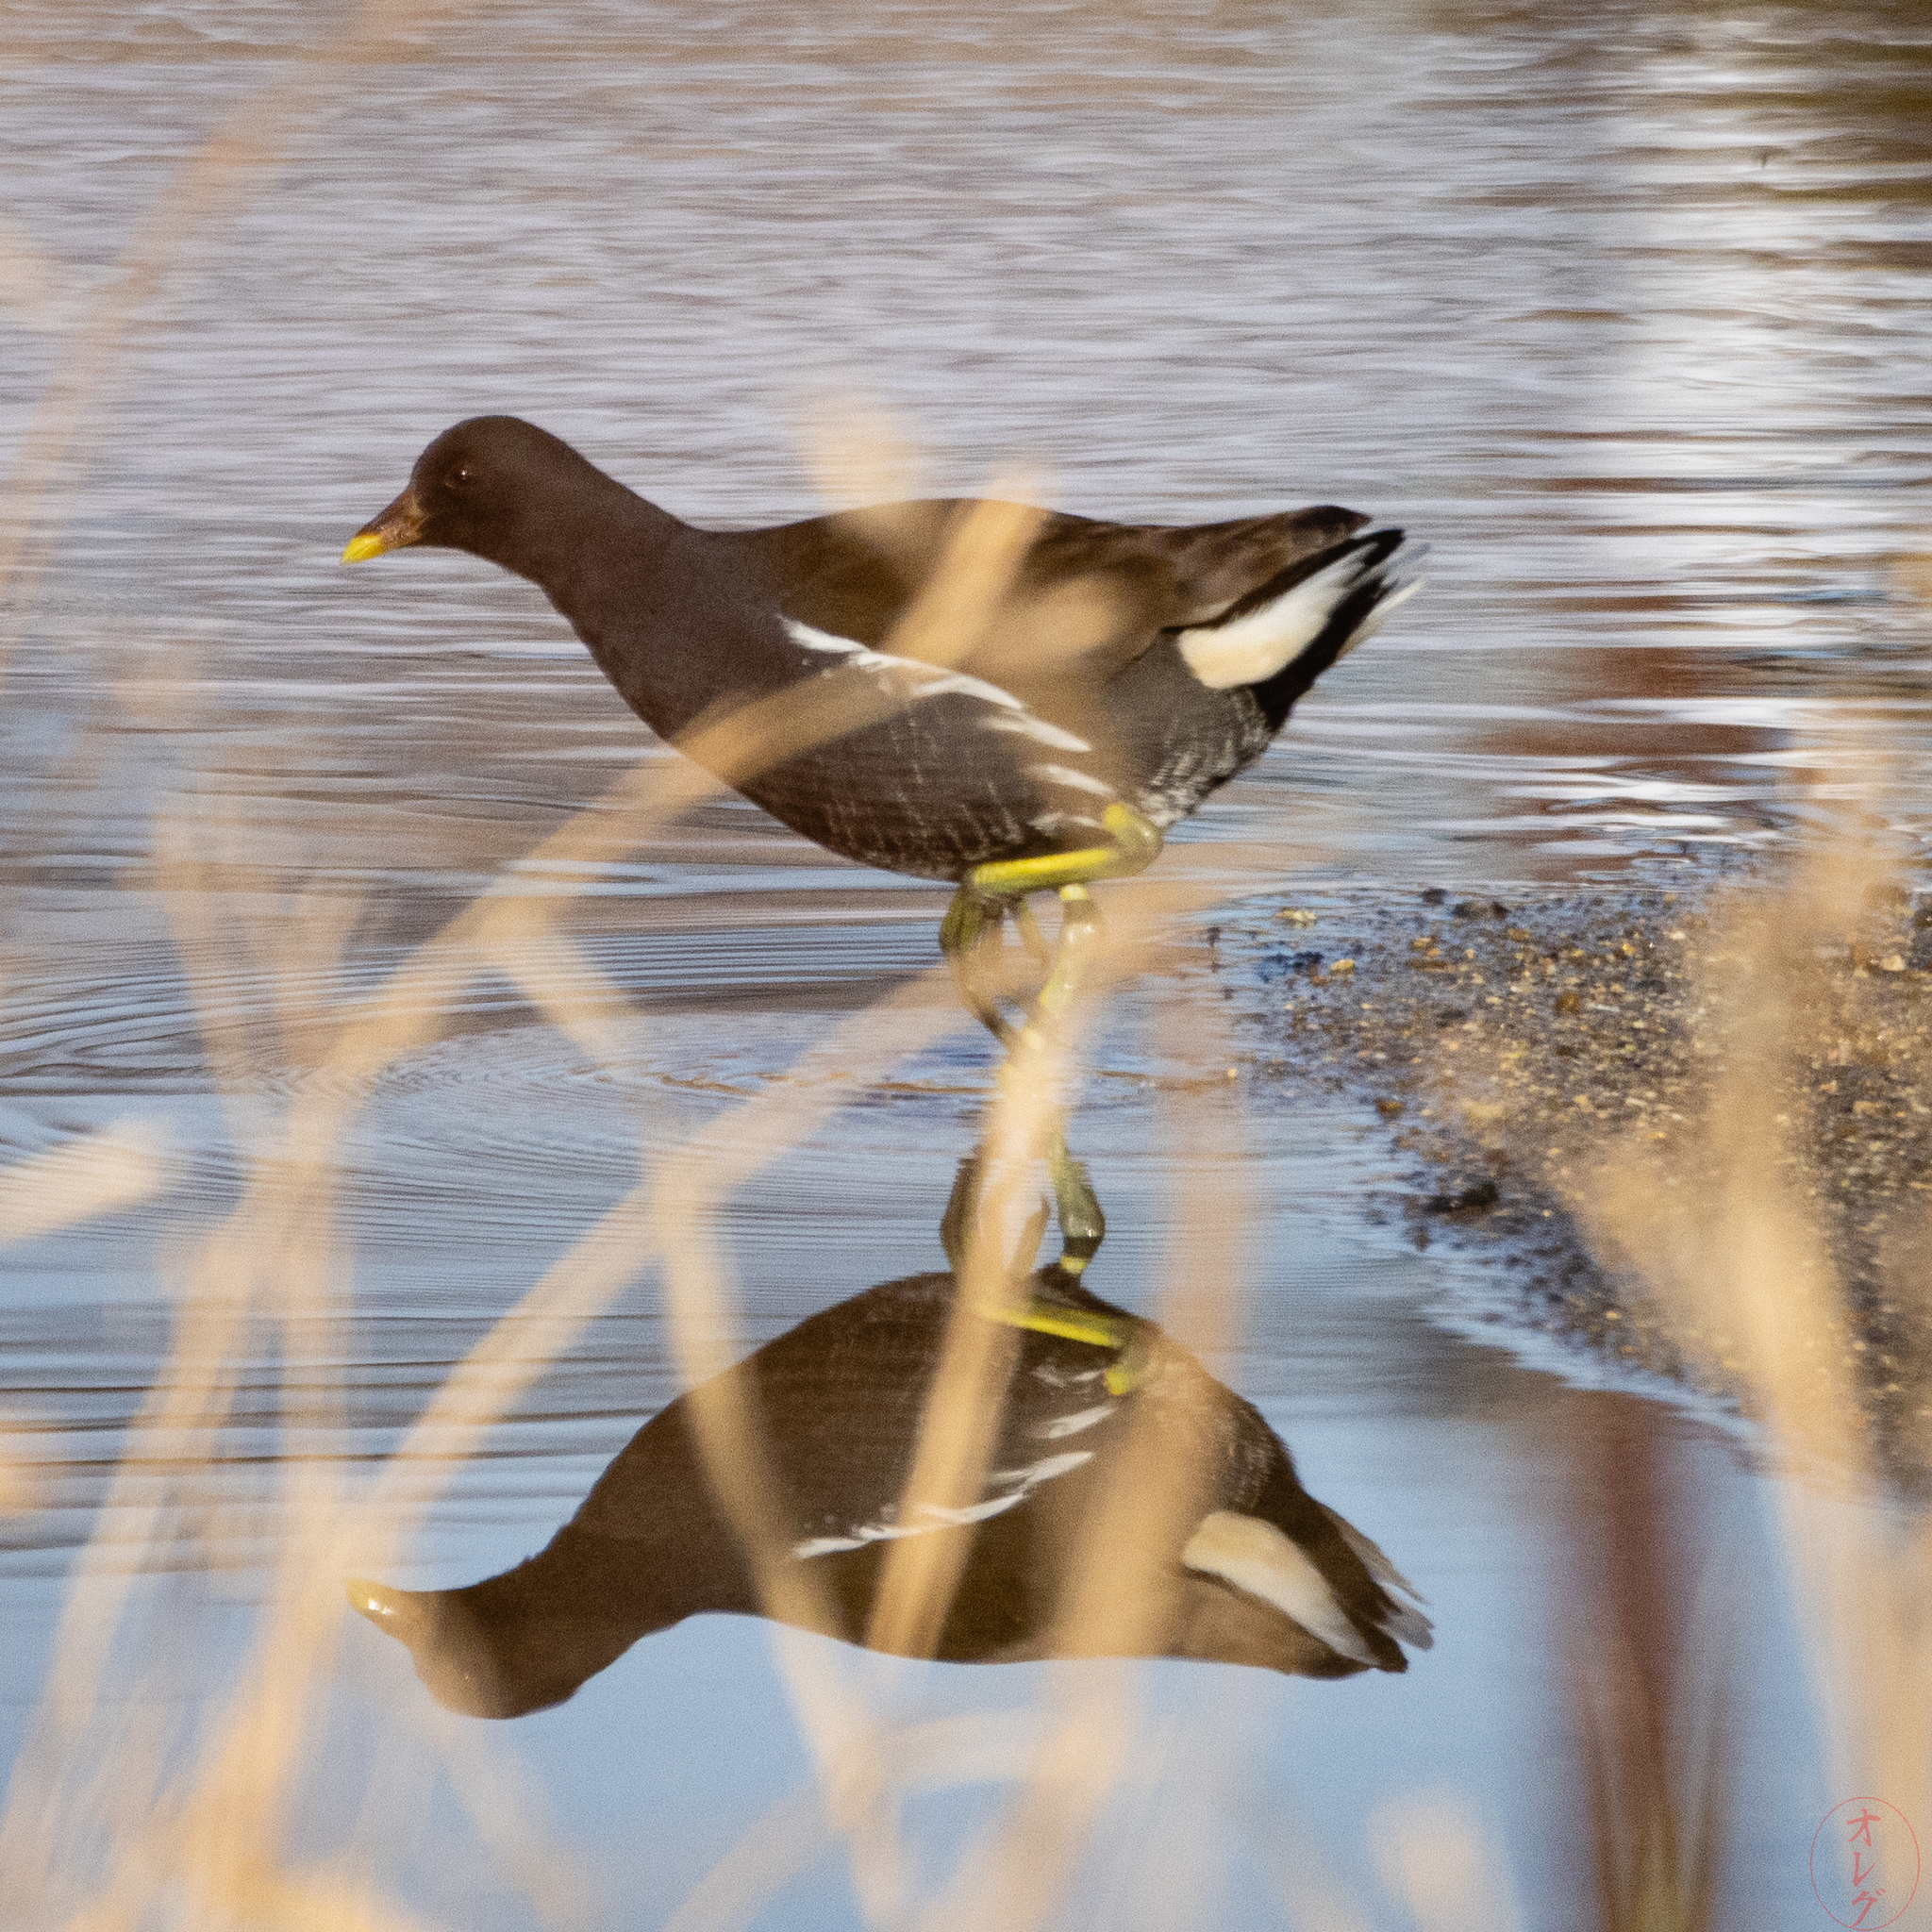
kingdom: Animalia
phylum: Chordata
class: Aves
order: Gruiformes
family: Rallidae
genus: Gallinula
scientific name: Gallinula chloropus
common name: Common moorhen
